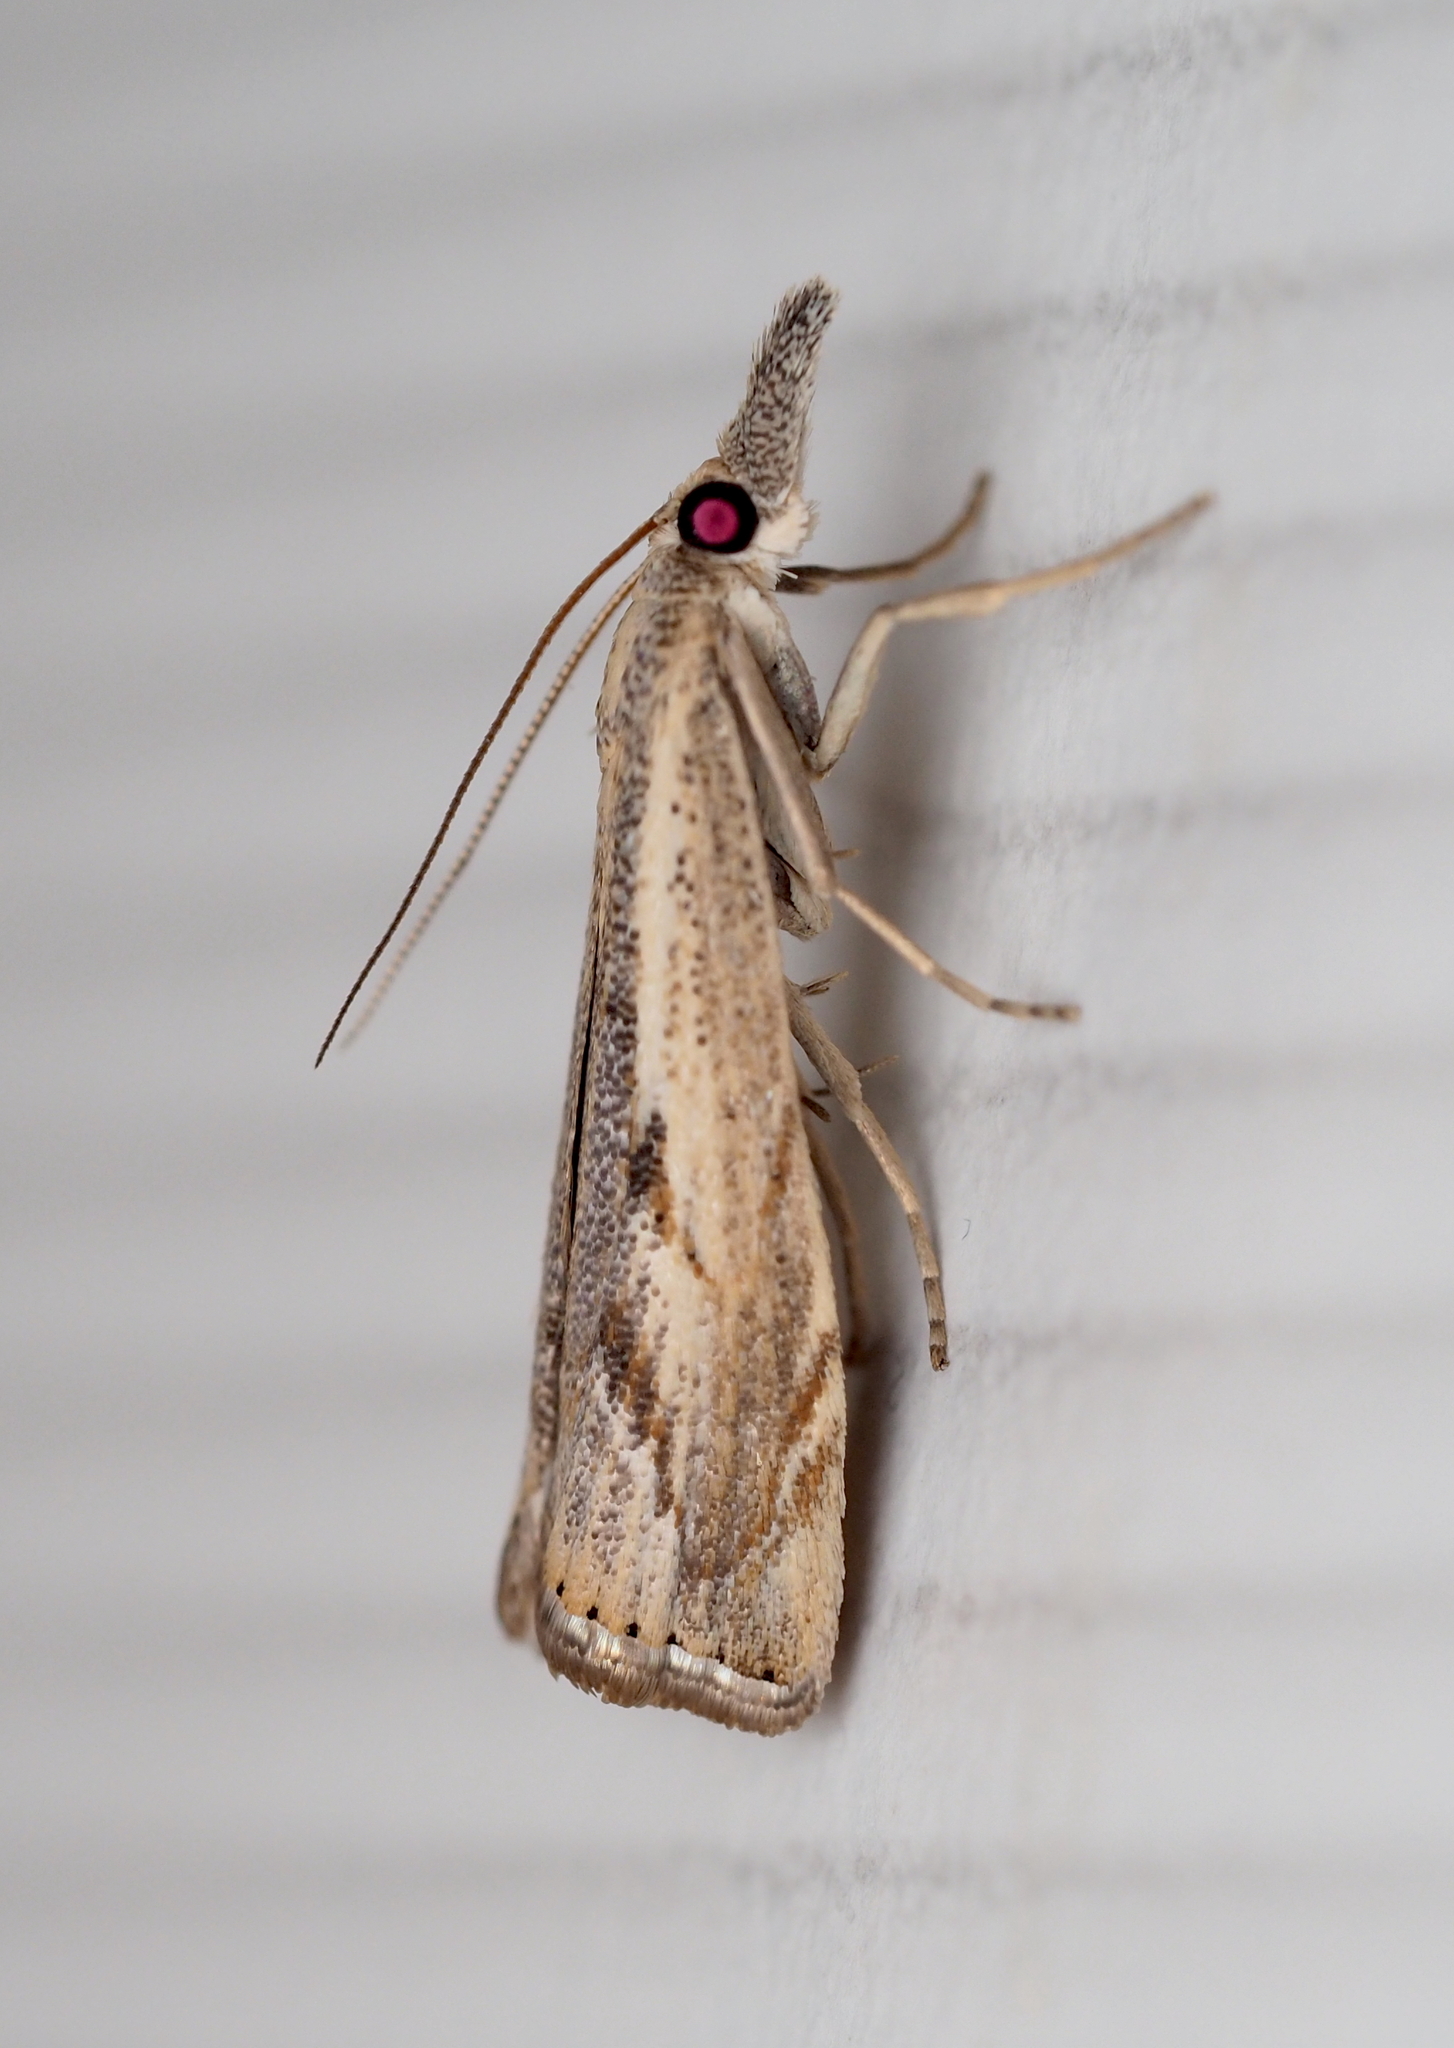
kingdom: Animalia
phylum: Arthropoda
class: Insecta
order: Lepidoptera
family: Crambidae
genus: Agriphila
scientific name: Agriphila geniculea
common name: Elbow-stripe grass-veneer
